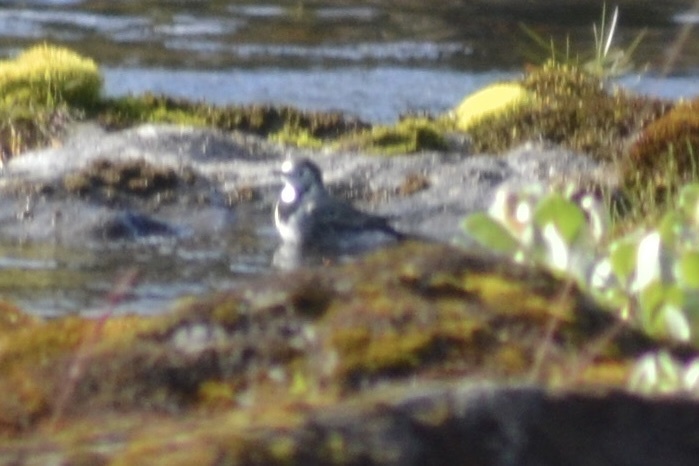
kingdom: Animalia
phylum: Chordata
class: Aves
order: Passeriformes
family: Motacillidae
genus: Motacilla
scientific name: Motacilla alba
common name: White wagtail
